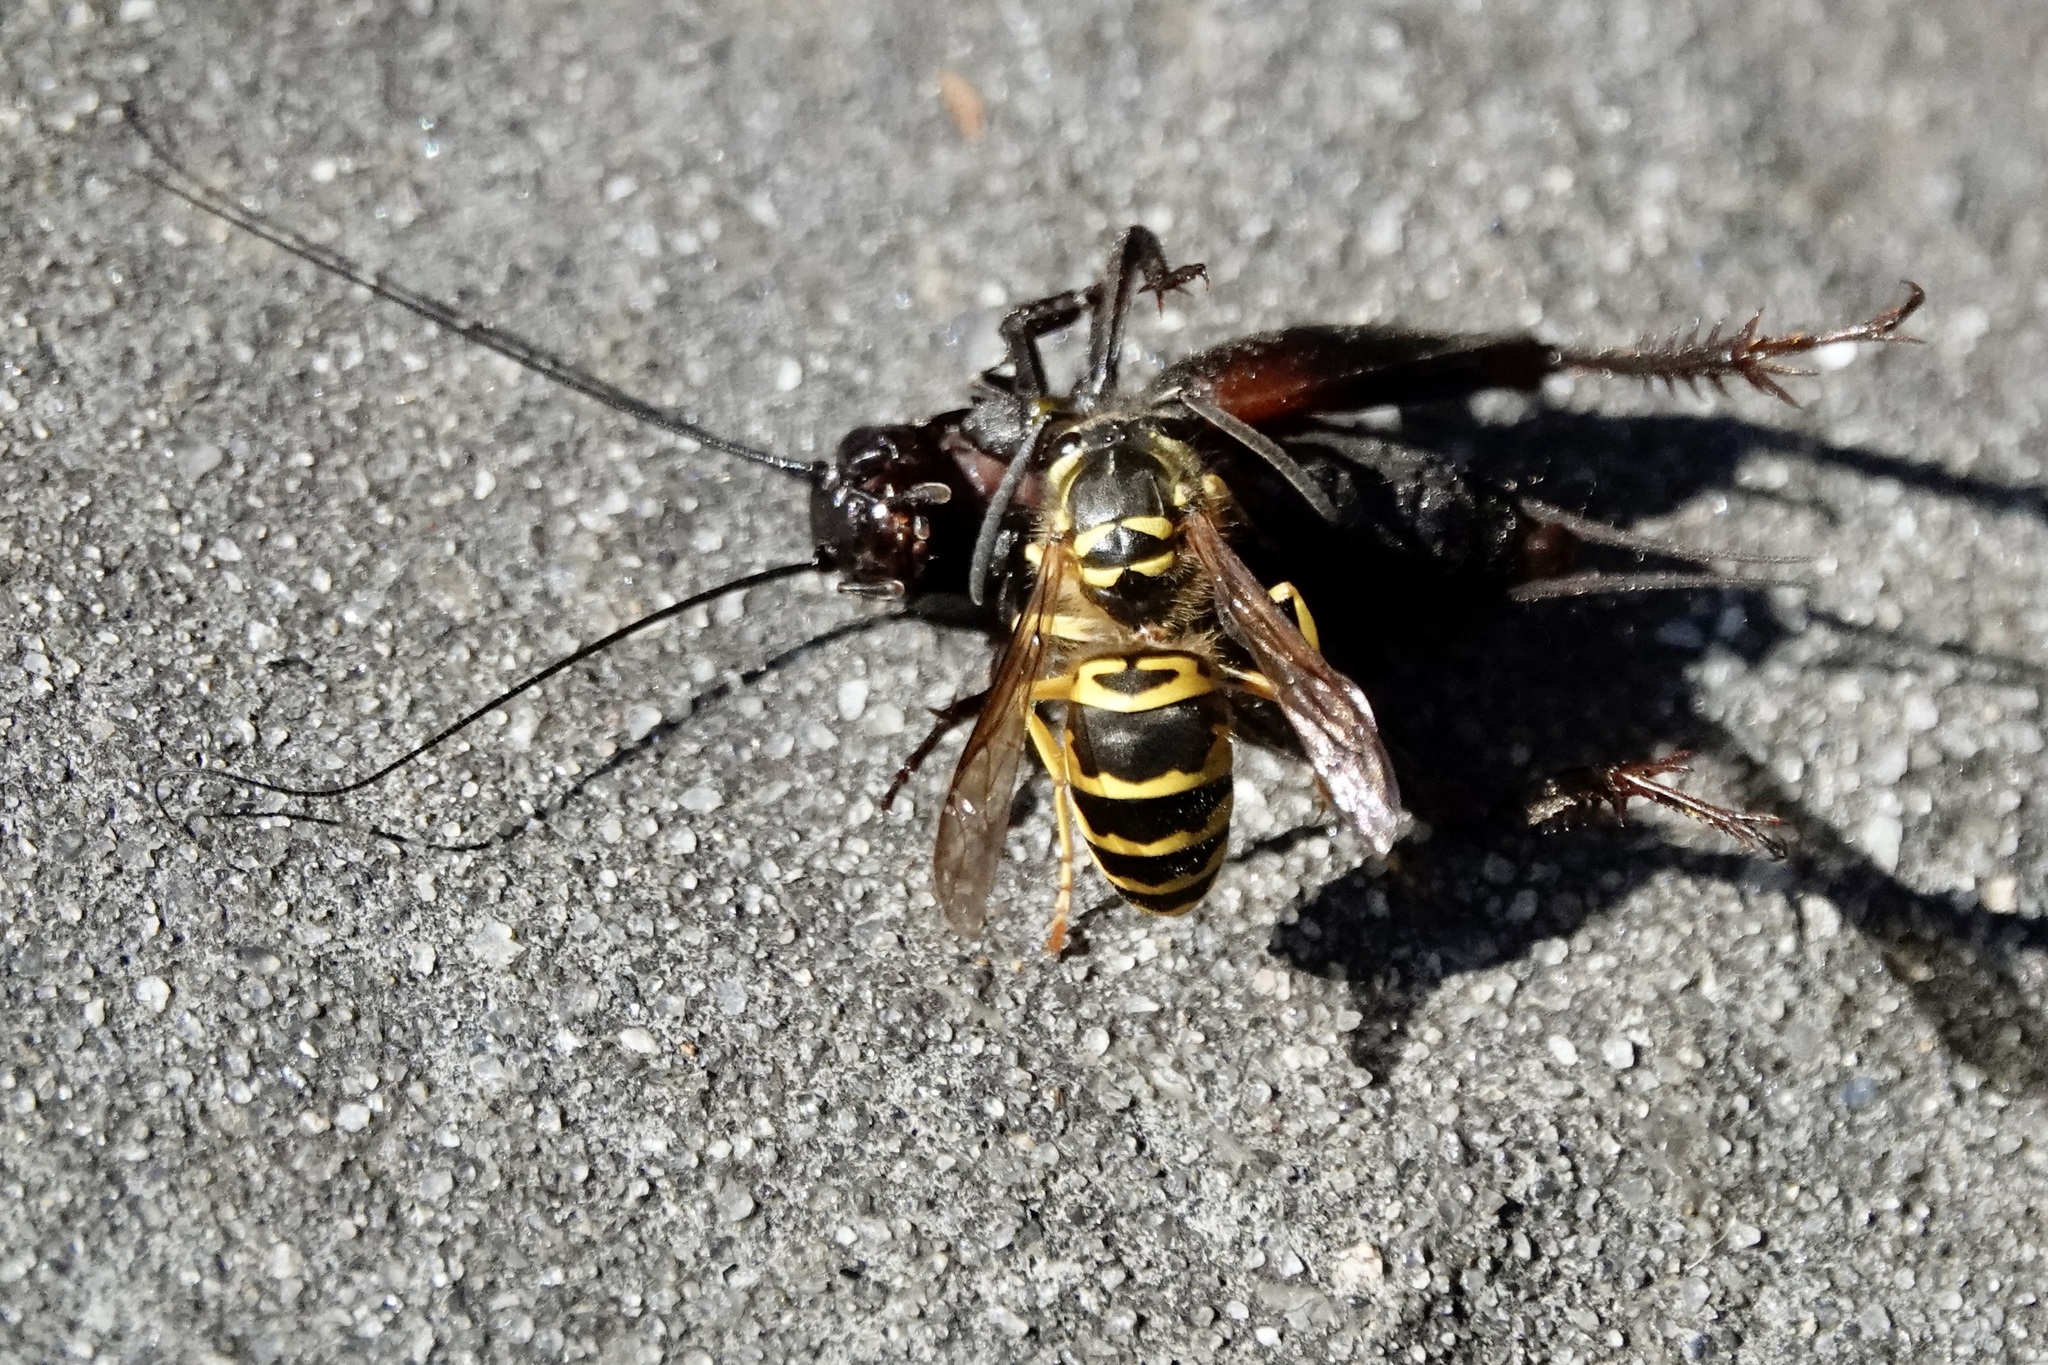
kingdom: Animalia
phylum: Arthropoda
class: Insecta
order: Hymenoptera
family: Vespidae
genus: Vespula
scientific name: Vespula maculifrons
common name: Eastern yellowjacket
